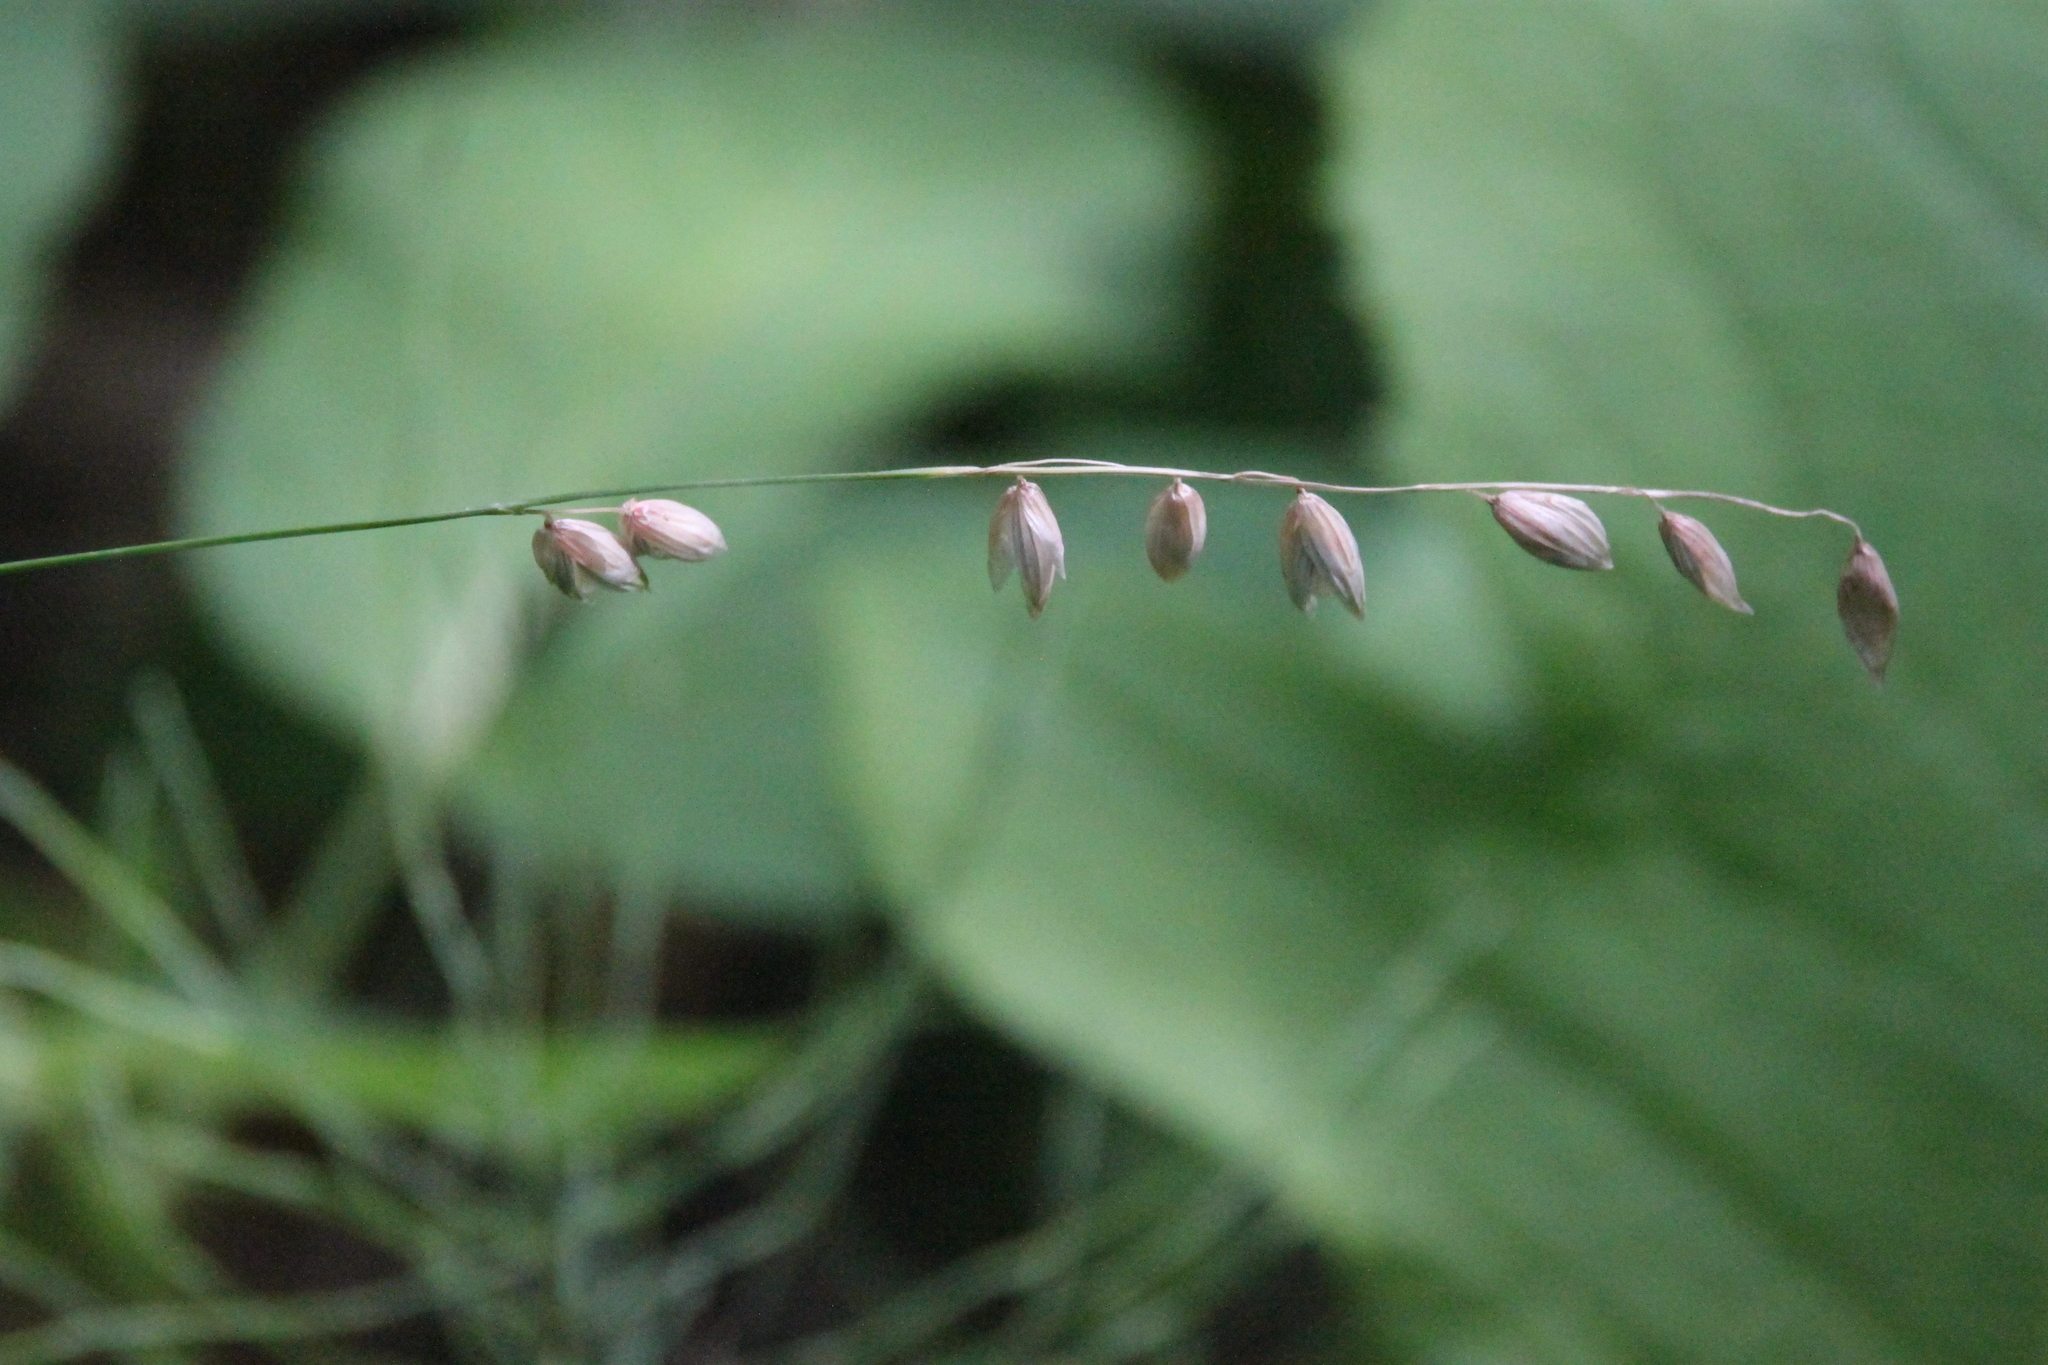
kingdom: Plantae
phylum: Tracheophyta
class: Liliopsida
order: Poales
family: Poaceae
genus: Melica
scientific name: Melica nutans
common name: Mountain melick
